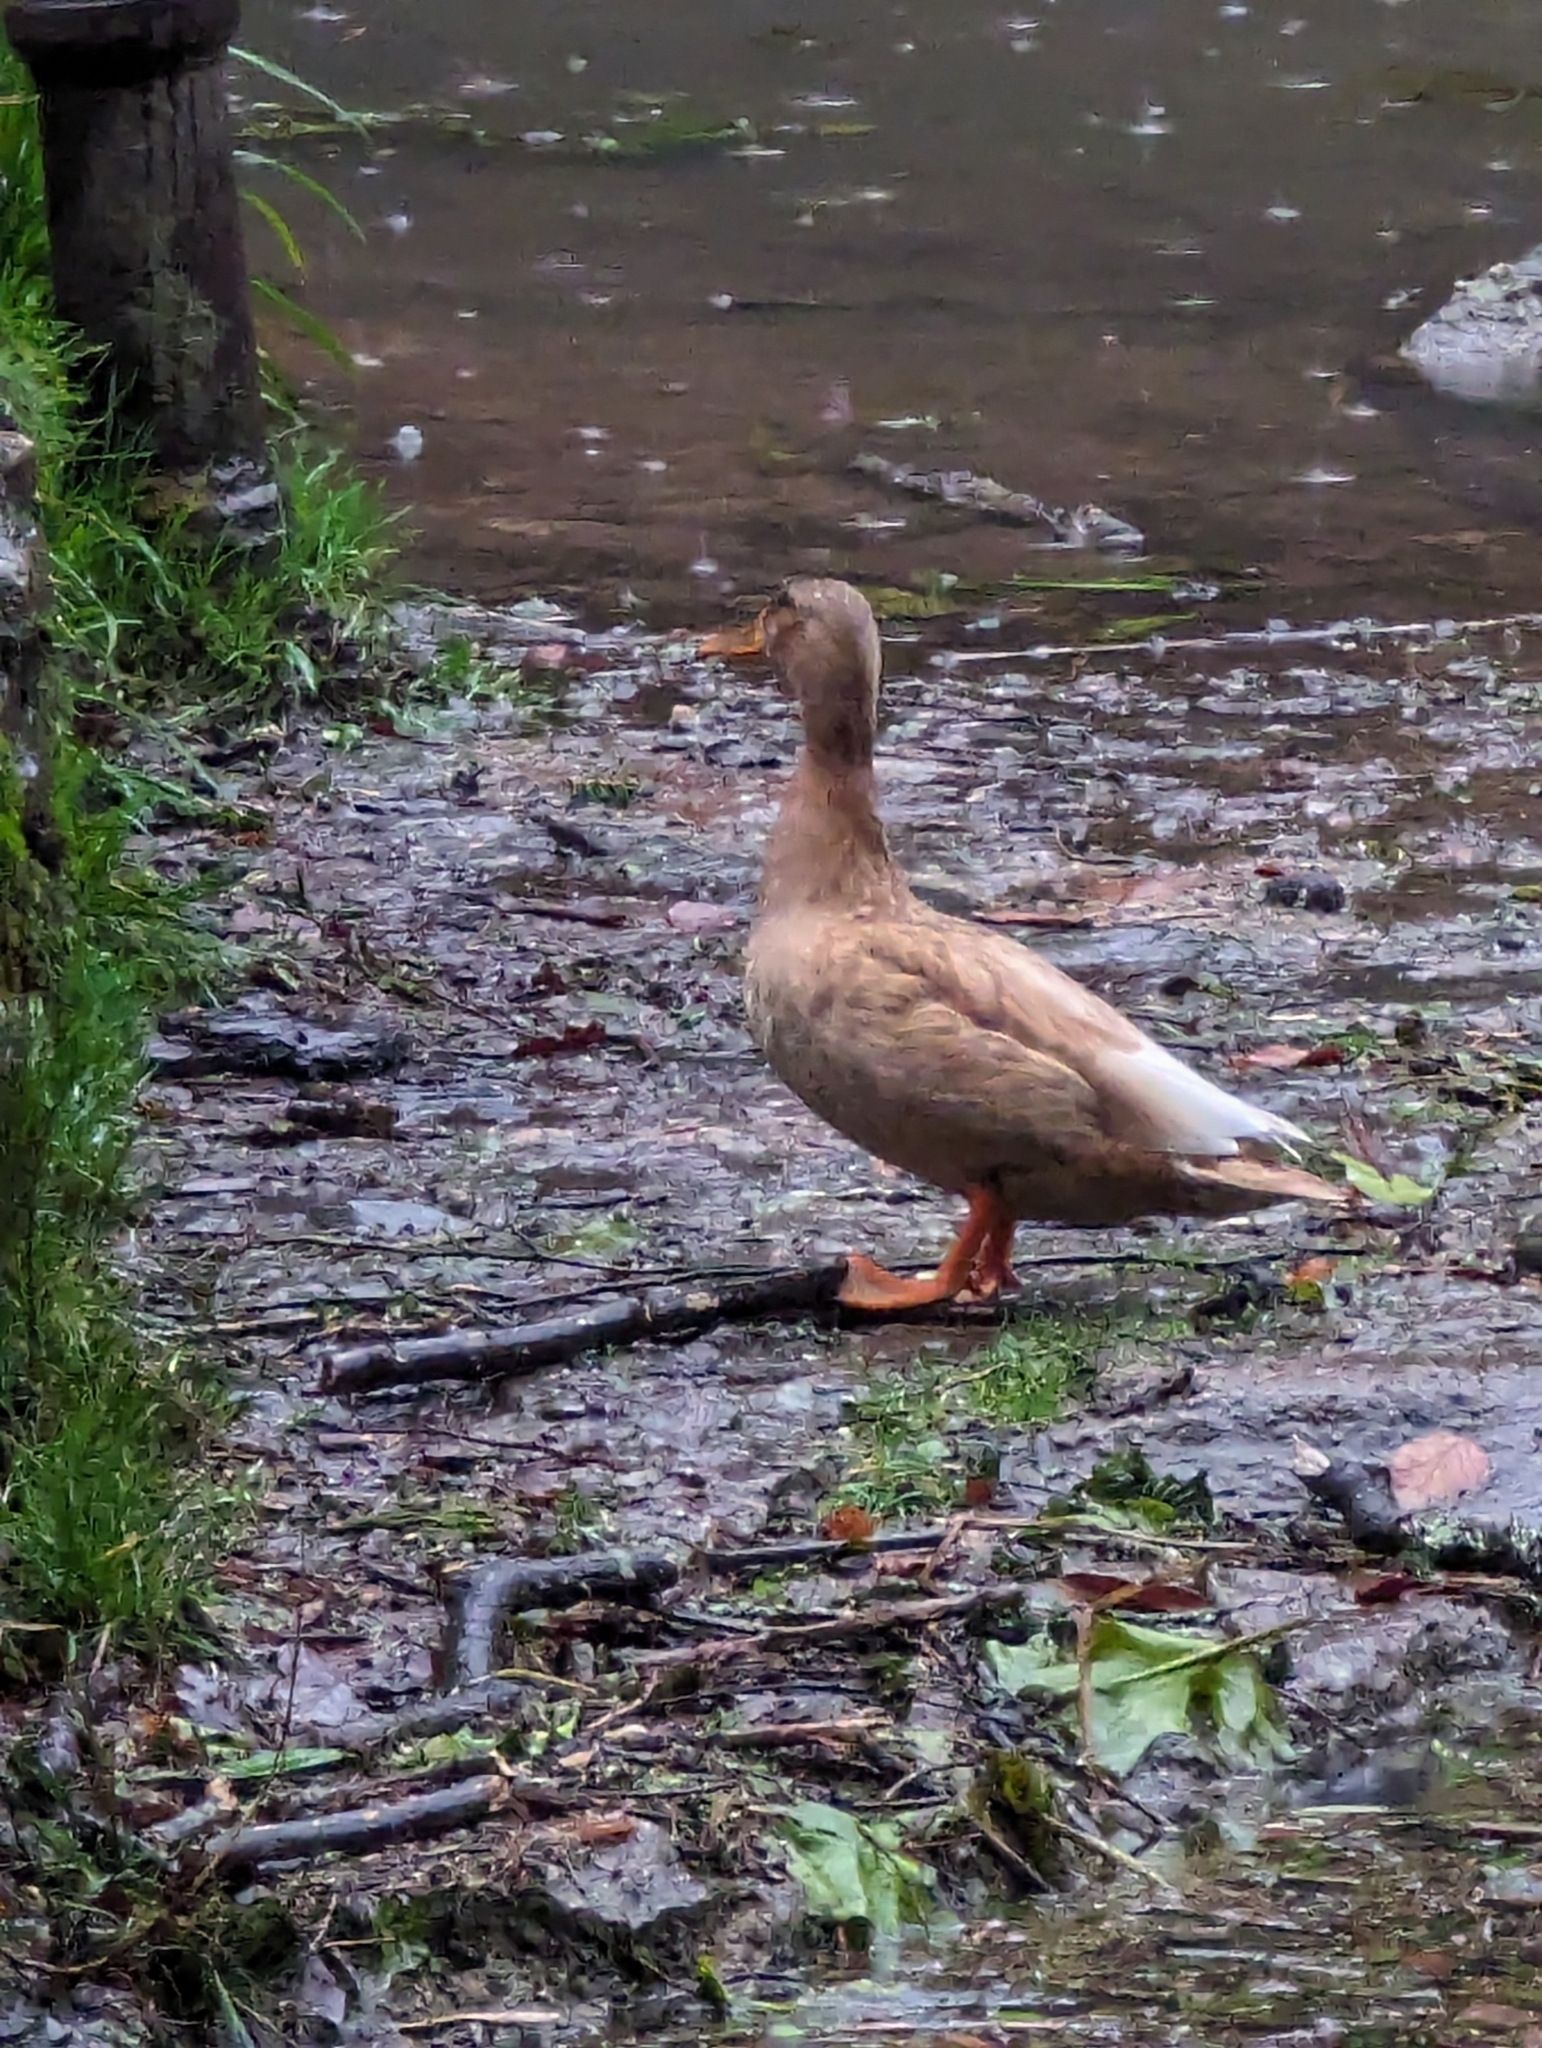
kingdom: Animalia
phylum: Chordata
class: Aves
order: Anseriformes
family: Anatidae
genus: Anas
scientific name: Anas platyrhynchos
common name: Mallard
